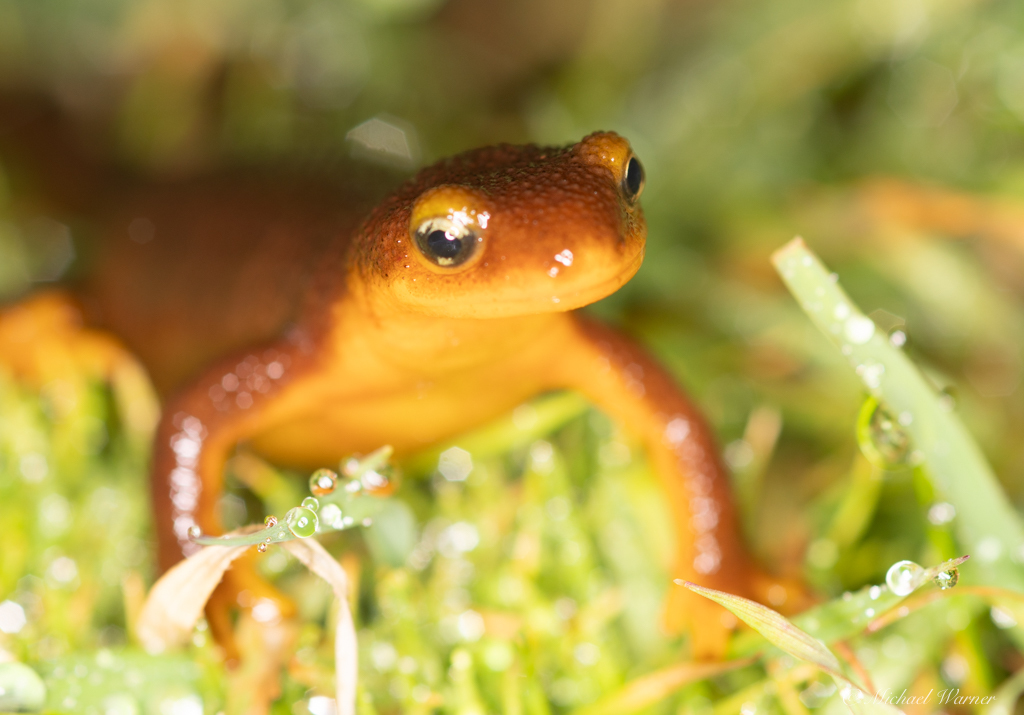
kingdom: Animalia
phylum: Chordata
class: Amphibia
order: Caudata
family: Salamandridae
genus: Taricha
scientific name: Taricha torosa
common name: California newt
